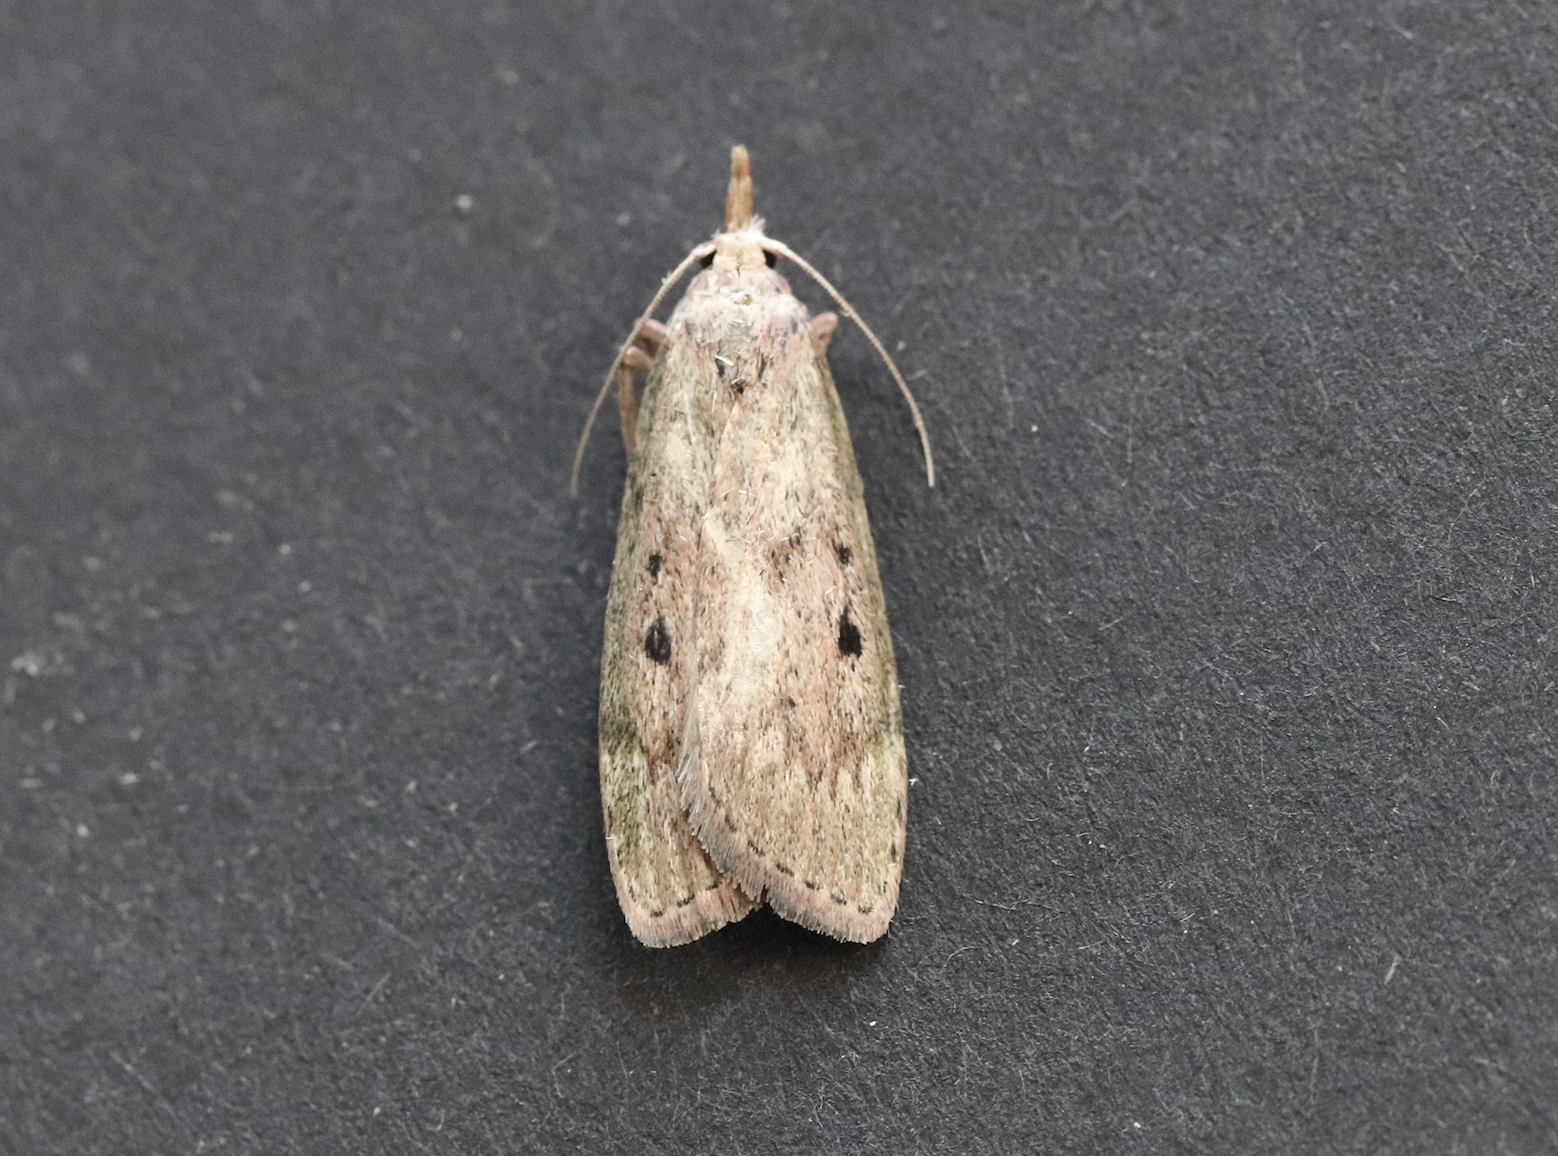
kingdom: Animalia
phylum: Arthropoda
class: Insecta
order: Lepidoptera
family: Pyralidae
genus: Aphomia
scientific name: Aphomia sociella
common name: Bee moth
